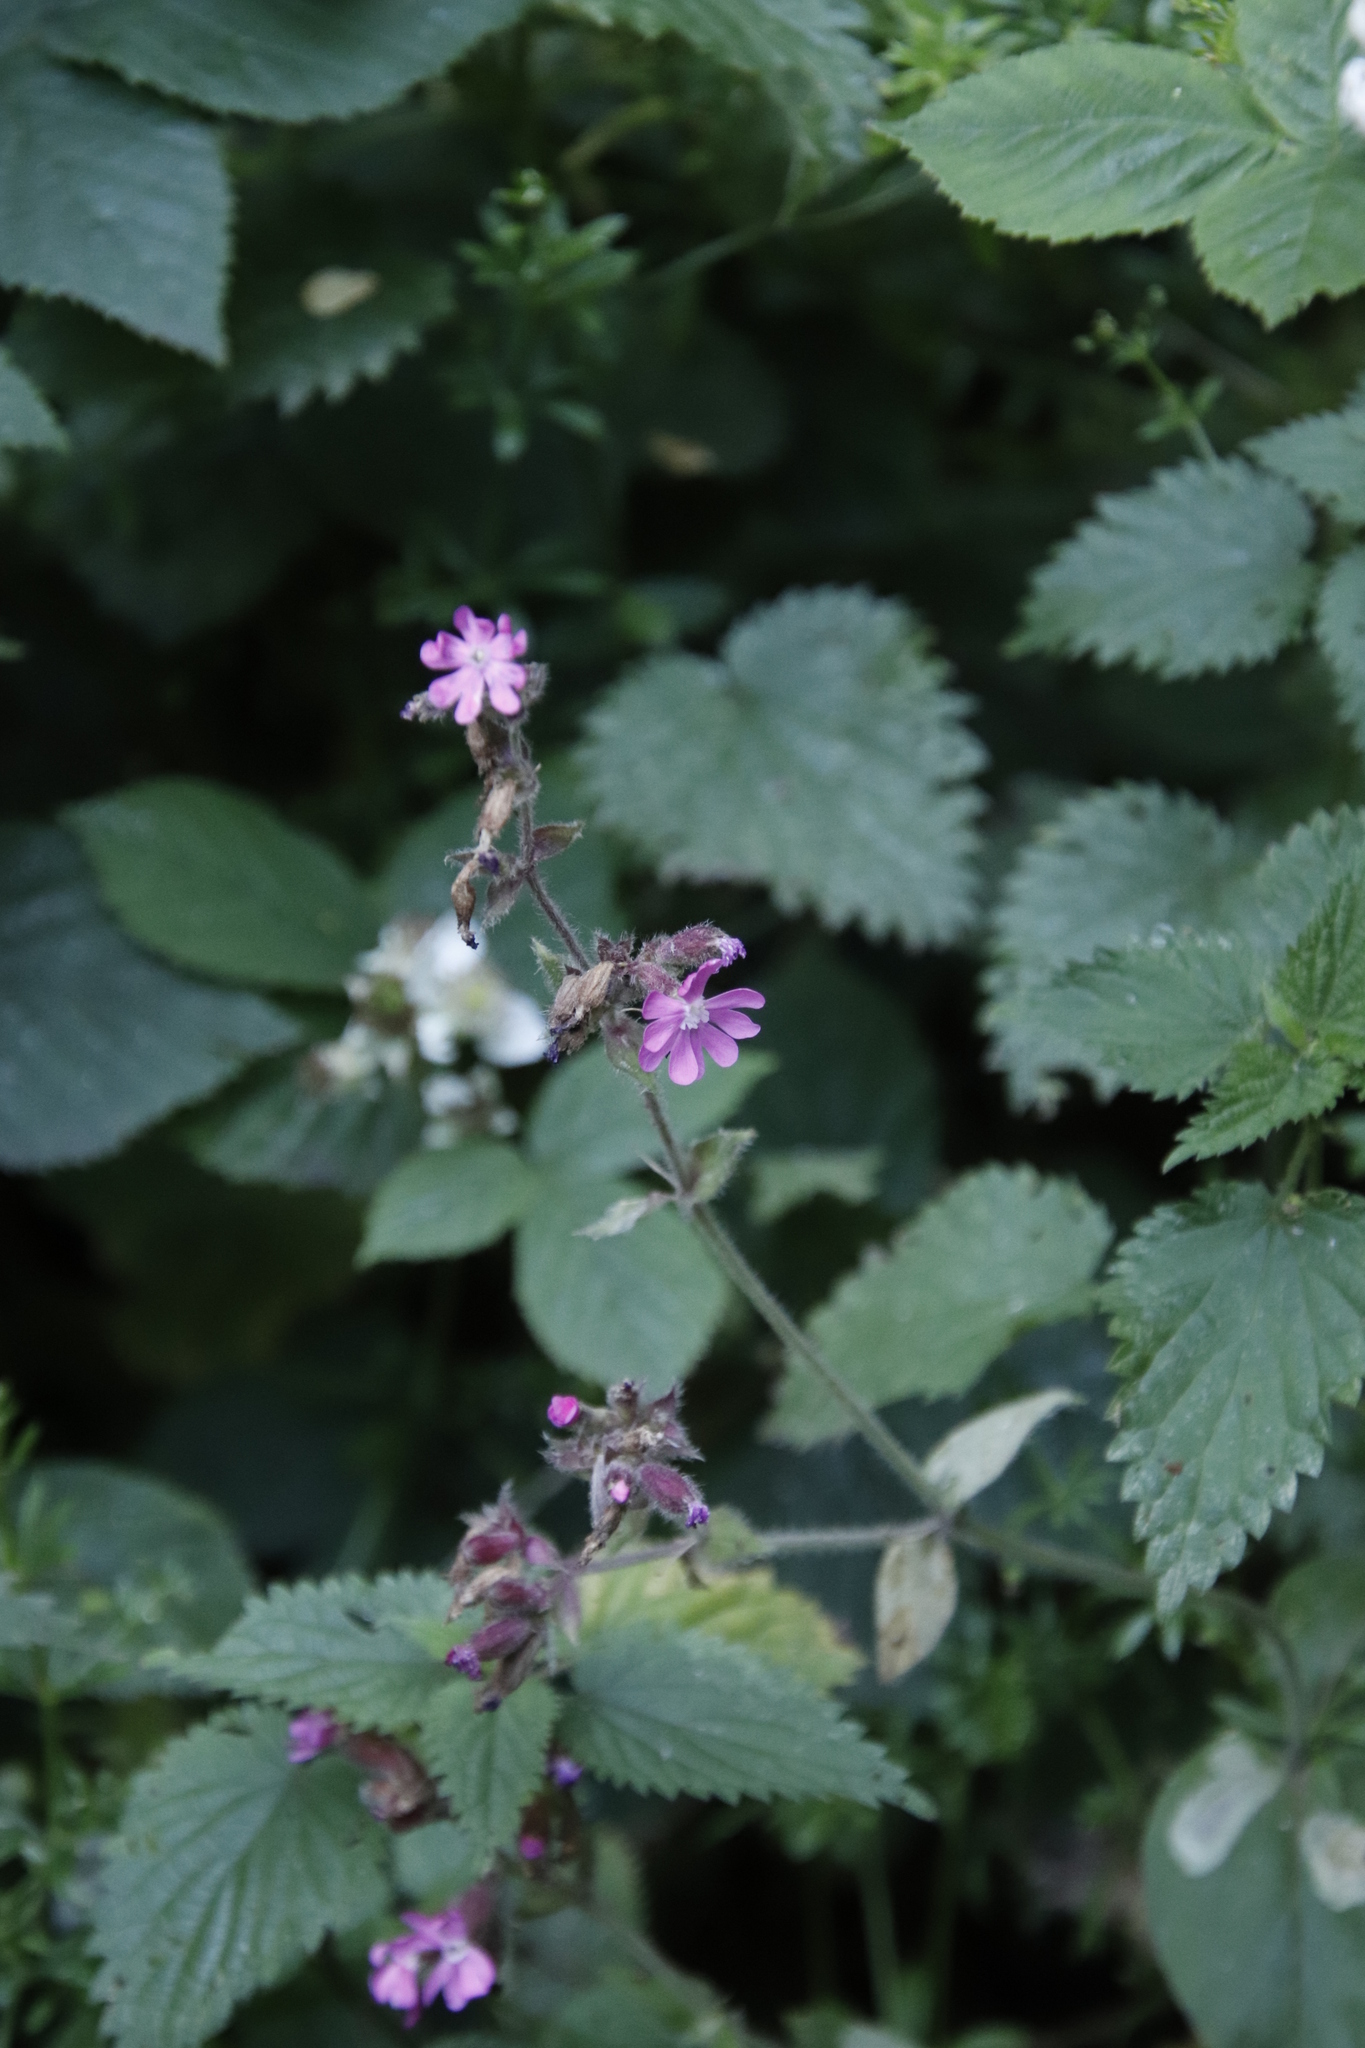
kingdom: Plantae
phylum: Tracheophyta
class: Magnoliopsida
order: Caryophyllales
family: Caryophyllaceae
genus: Silene
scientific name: Silene dioica
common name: Red campion
